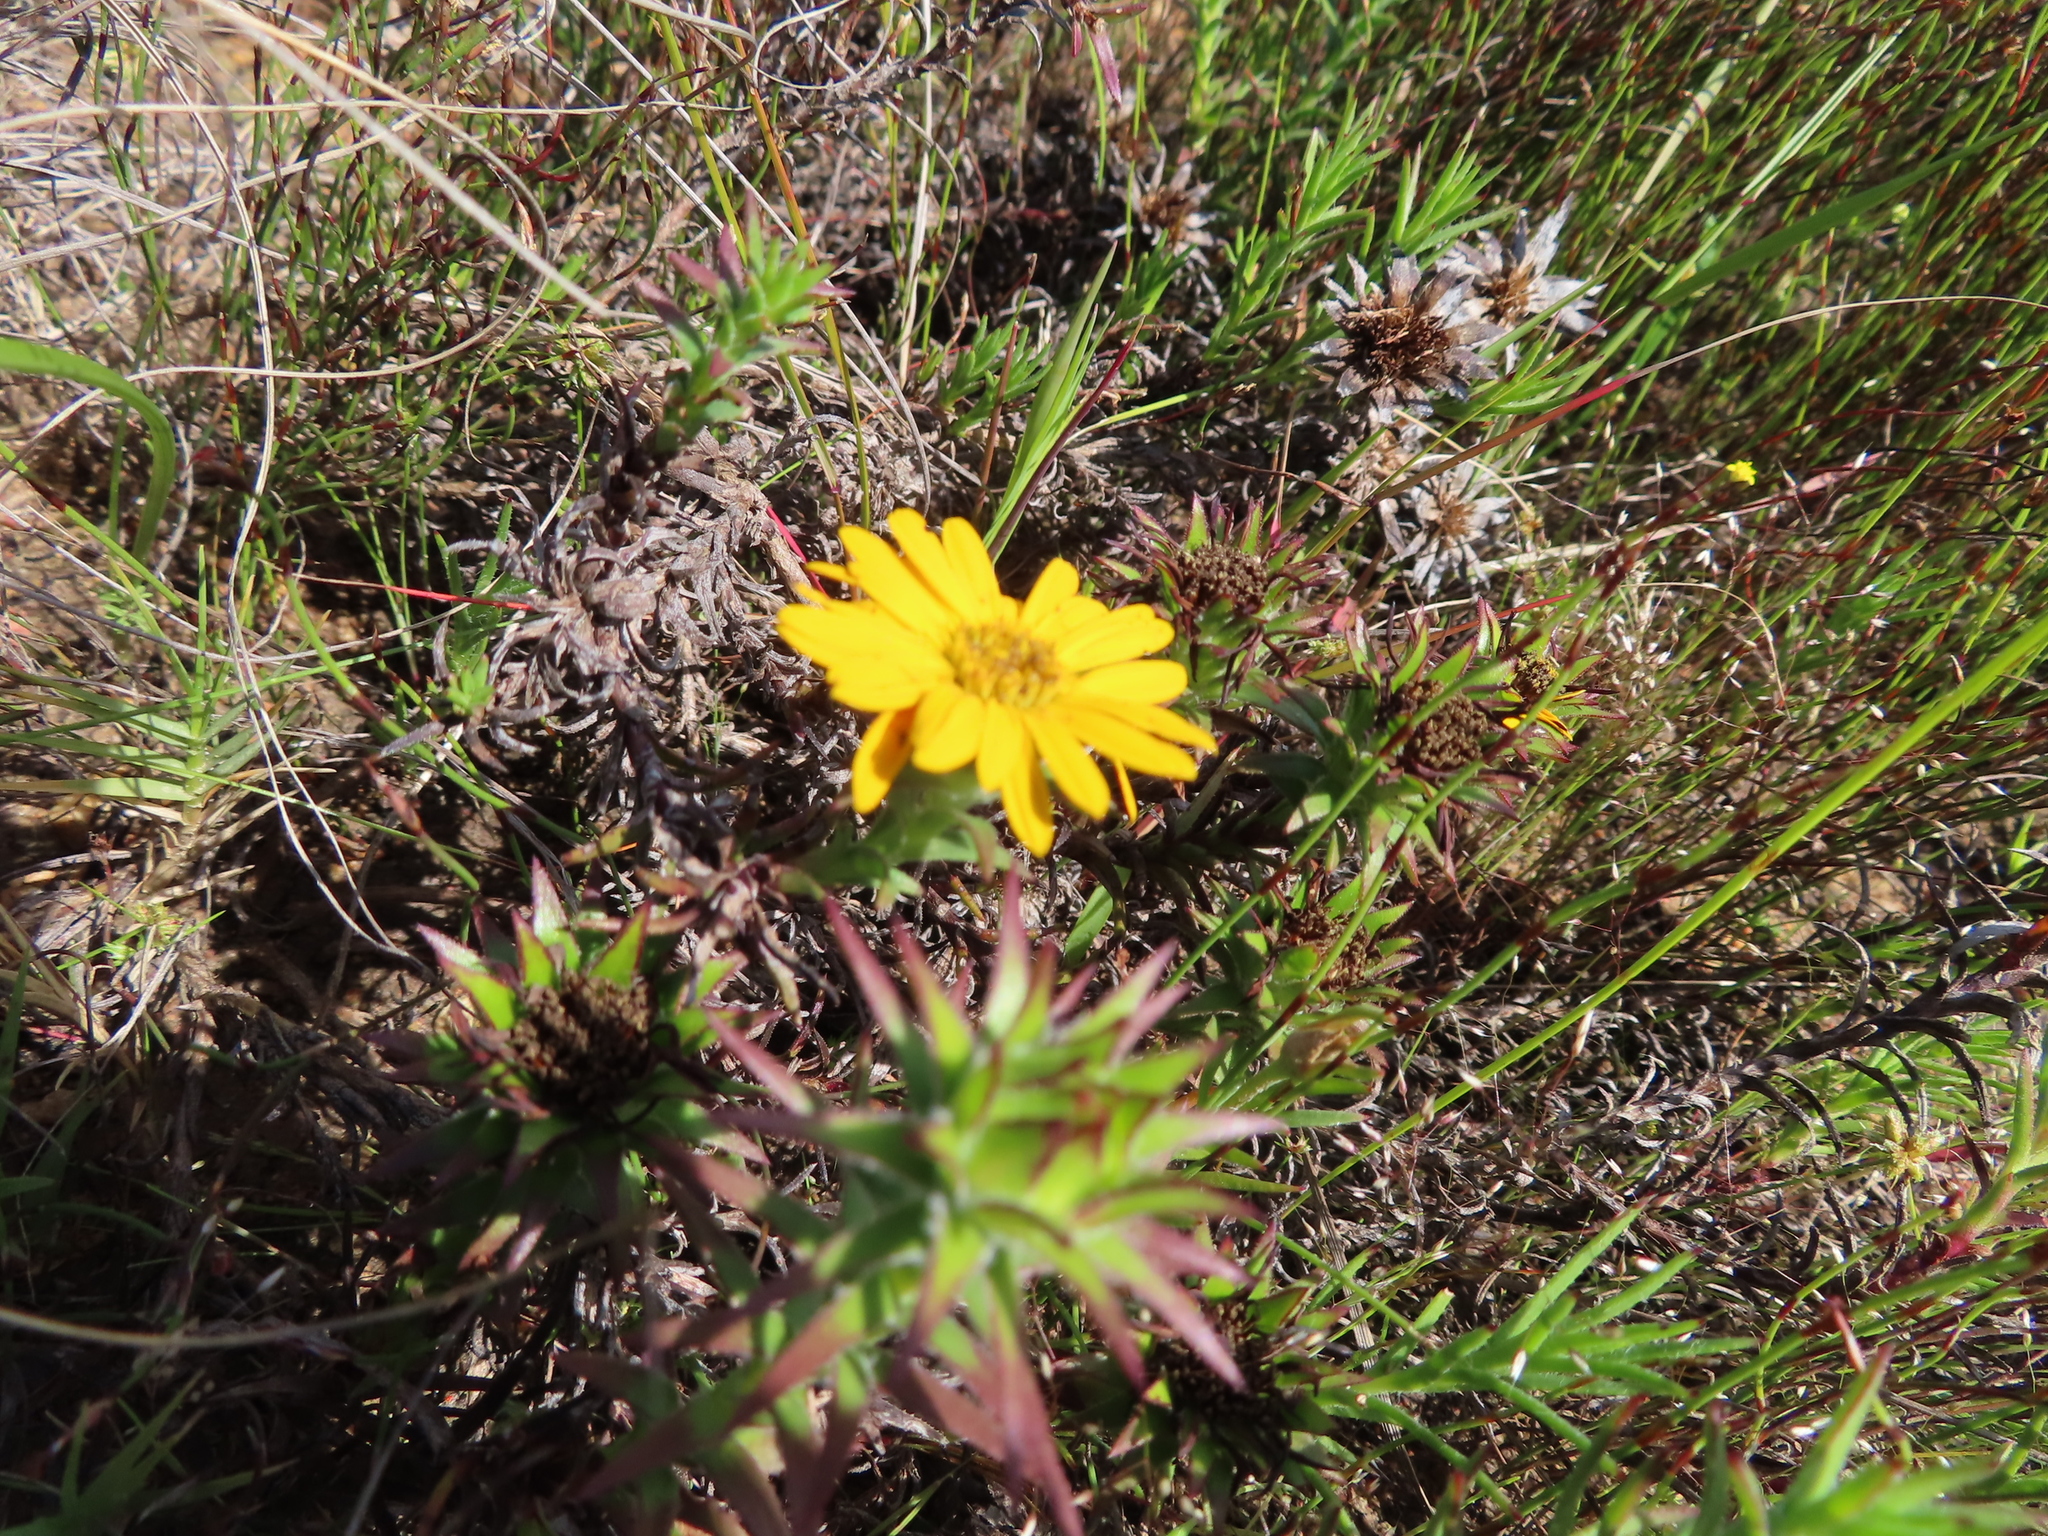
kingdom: Plantae
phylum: Tracheophyta
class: Magnoliopsida
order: Asterales
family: Asteraceae
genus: Oedera
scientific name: Oedera imbricata
